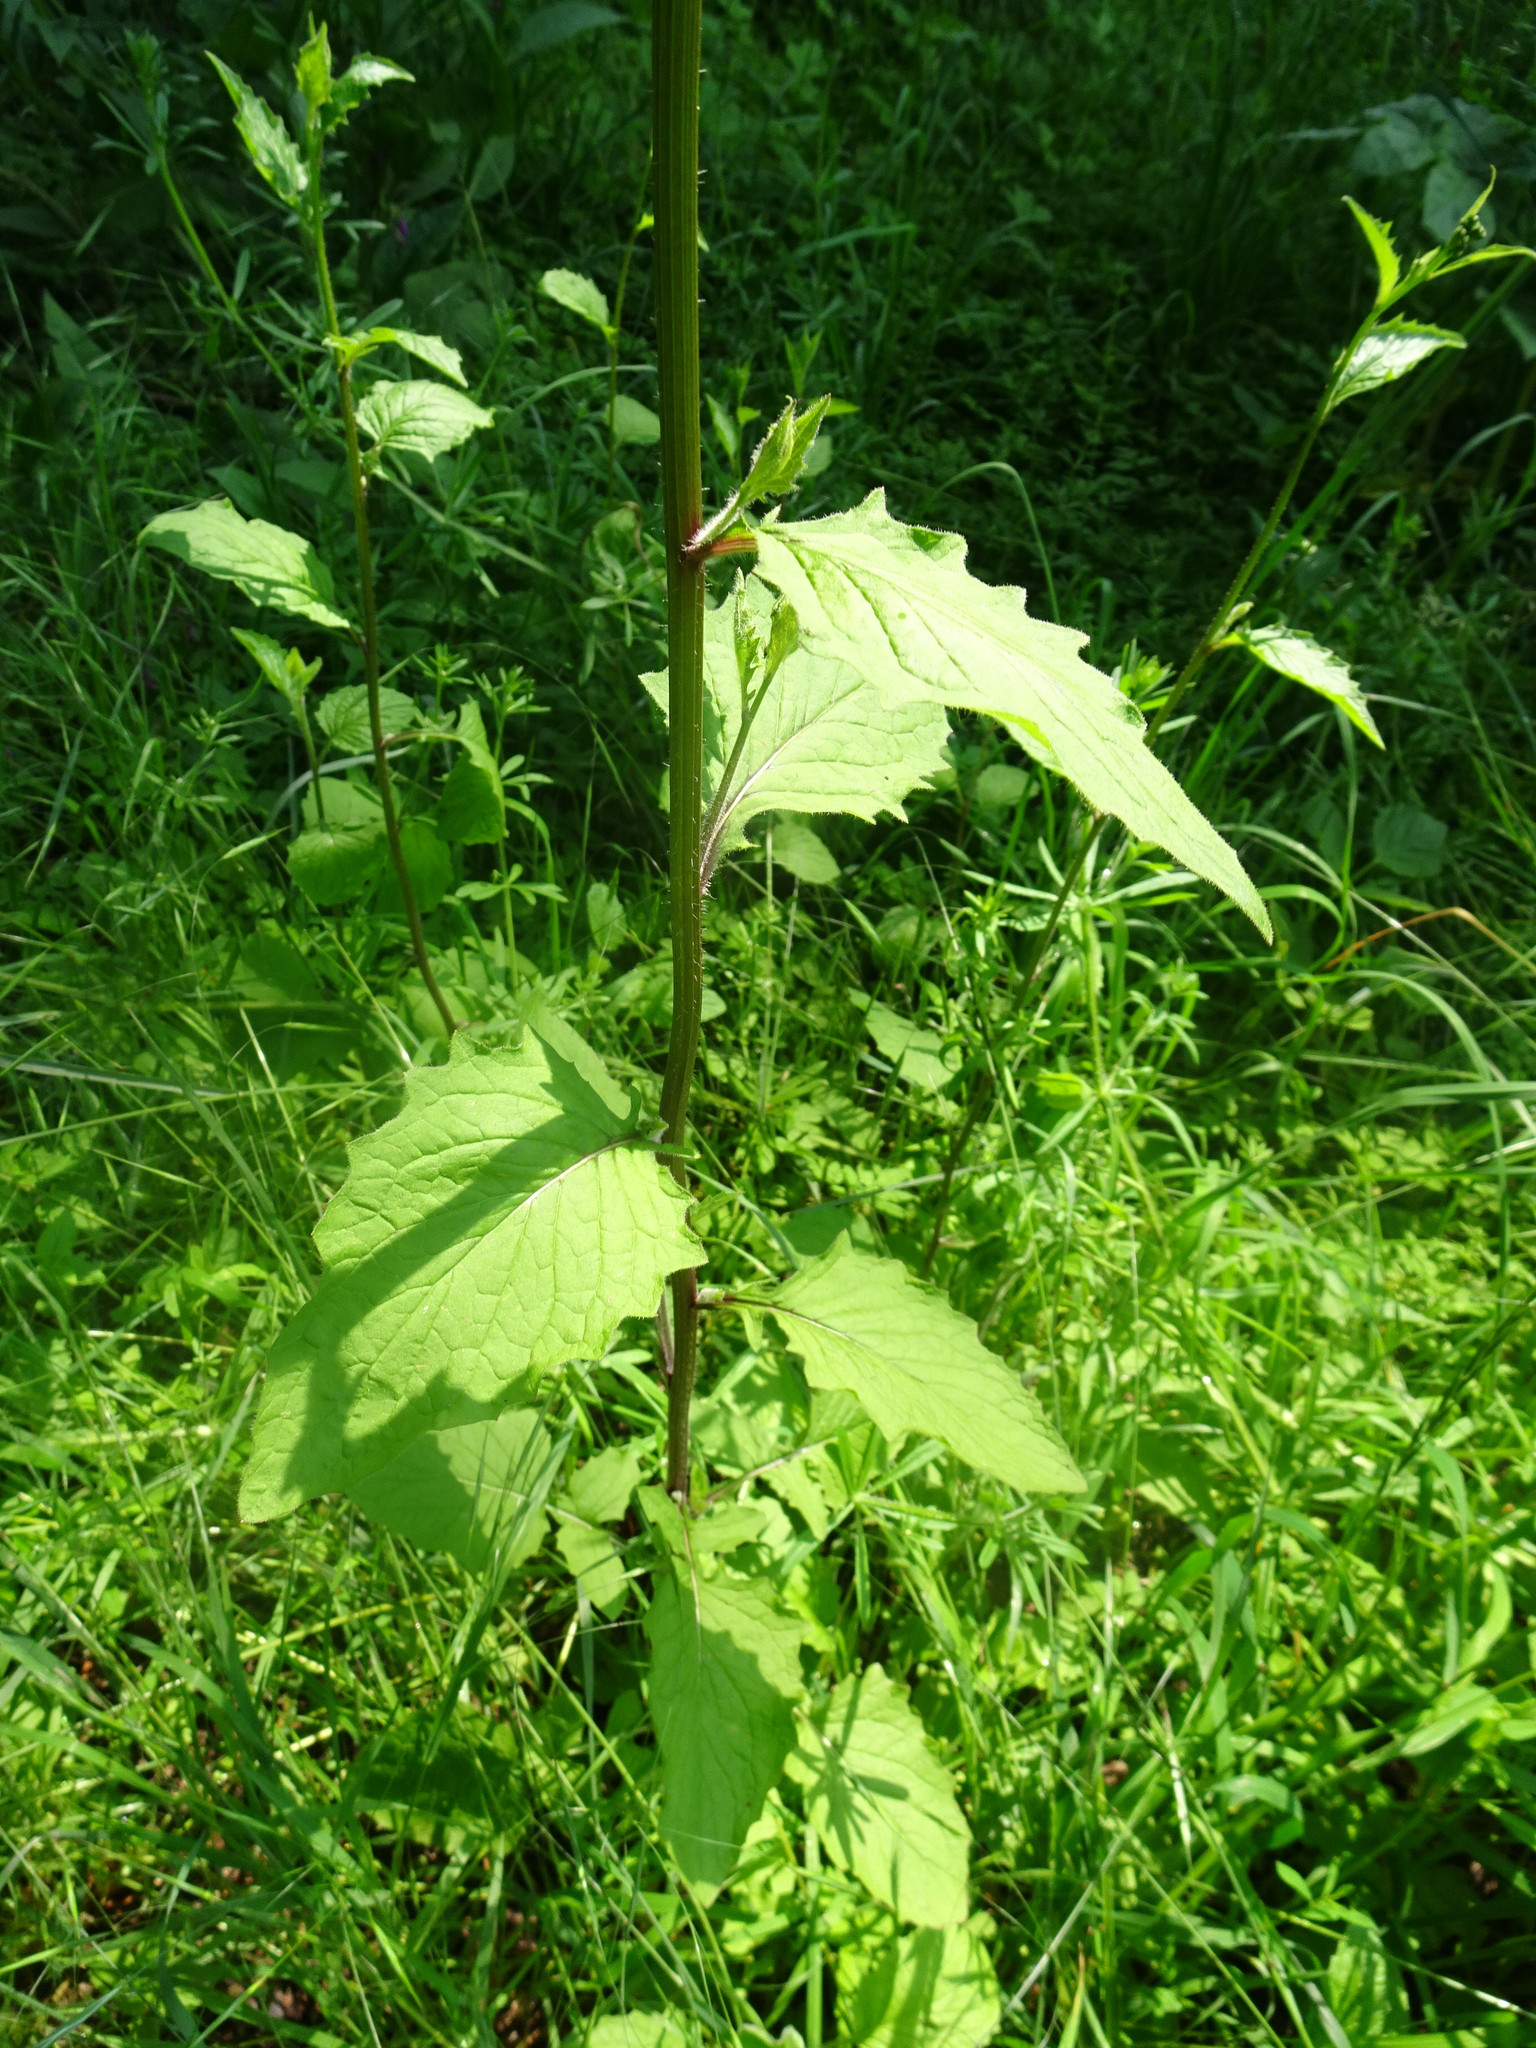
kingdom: Plantae
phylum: Tracheophyta
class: Magnoliopsida
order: Asterales
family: Asteraceae
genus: Lapsana
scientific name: Lapsana communis
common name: Nipplewort
